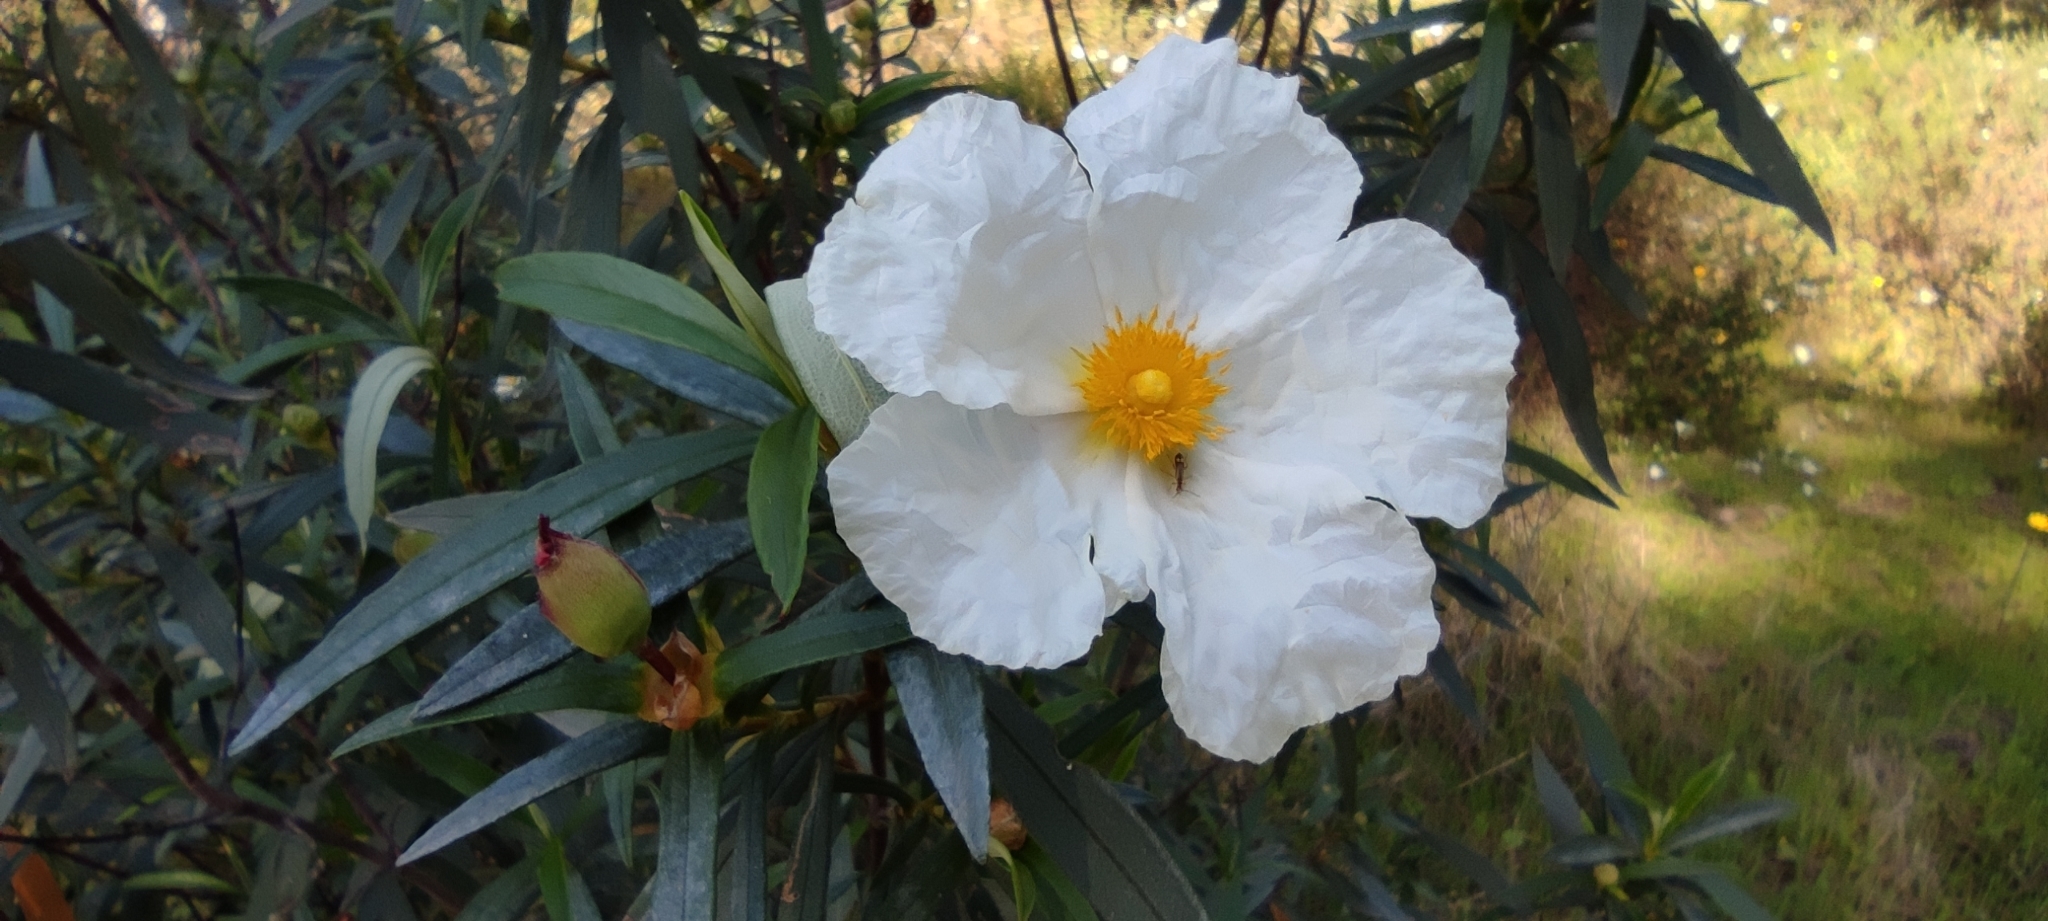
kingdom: Plantae
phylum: Tracheophyta
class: Magnoliopsida
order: Malvales
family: Cistaceae
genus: Cistus
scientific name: Cistus ladanifer
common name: Common gum cistus
